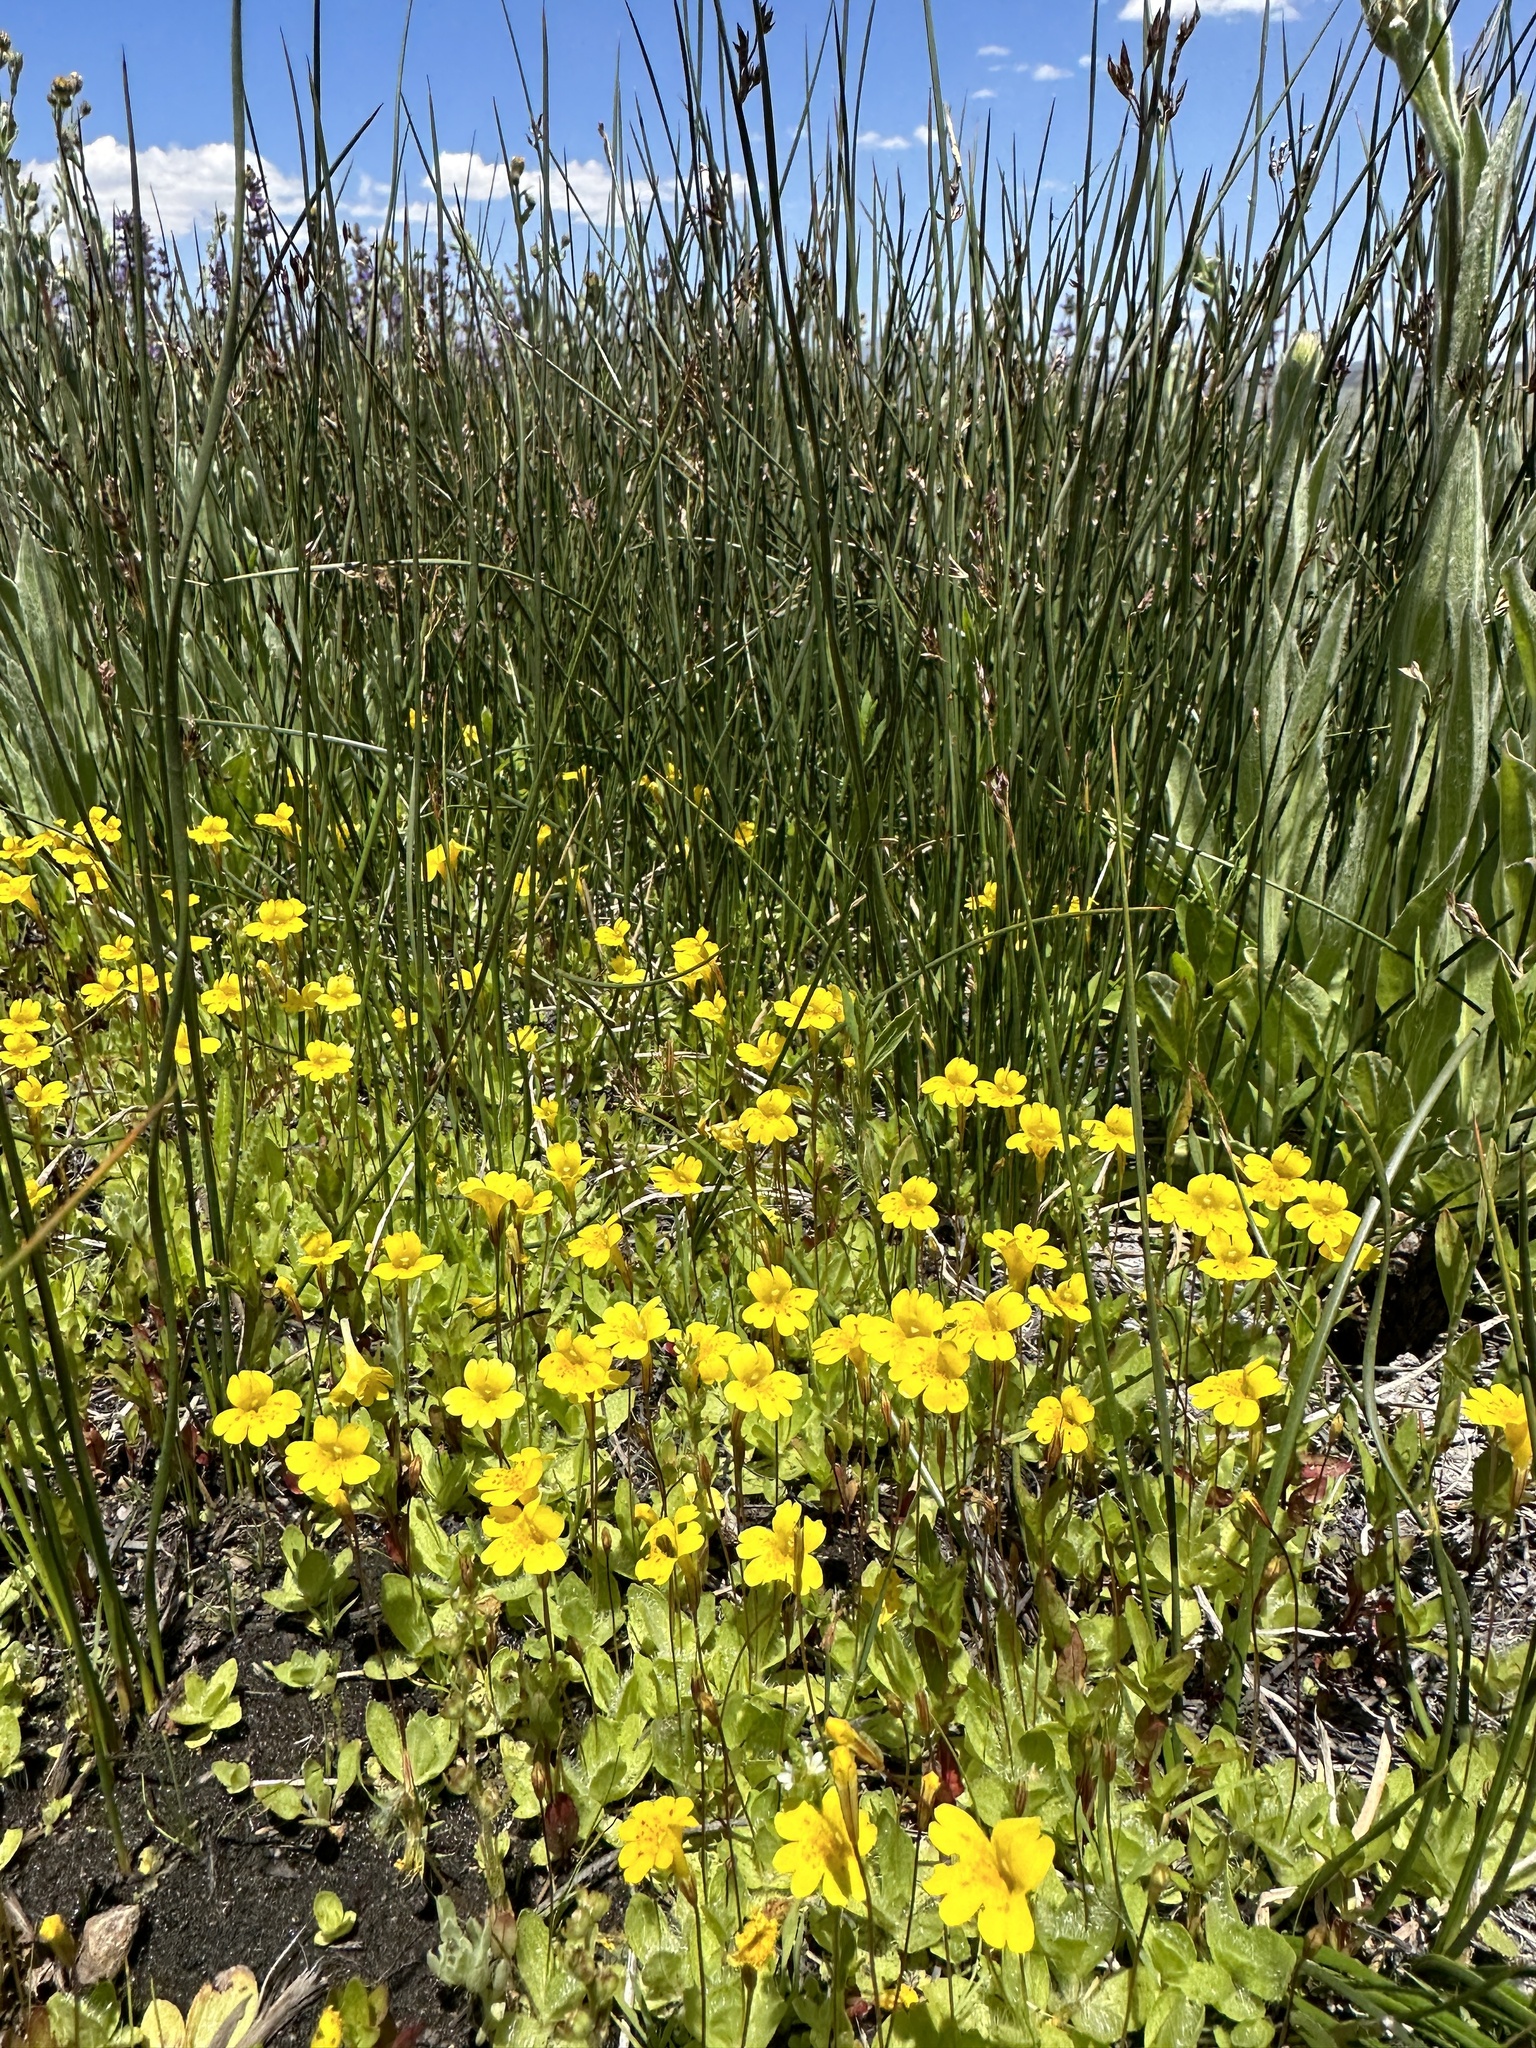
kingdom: Plantae
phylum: Tracheophyta
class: Magnoliopsida
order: Lamiales
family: Phrymaceae
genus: Erythranthe
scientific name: Erythranthe primuloides
